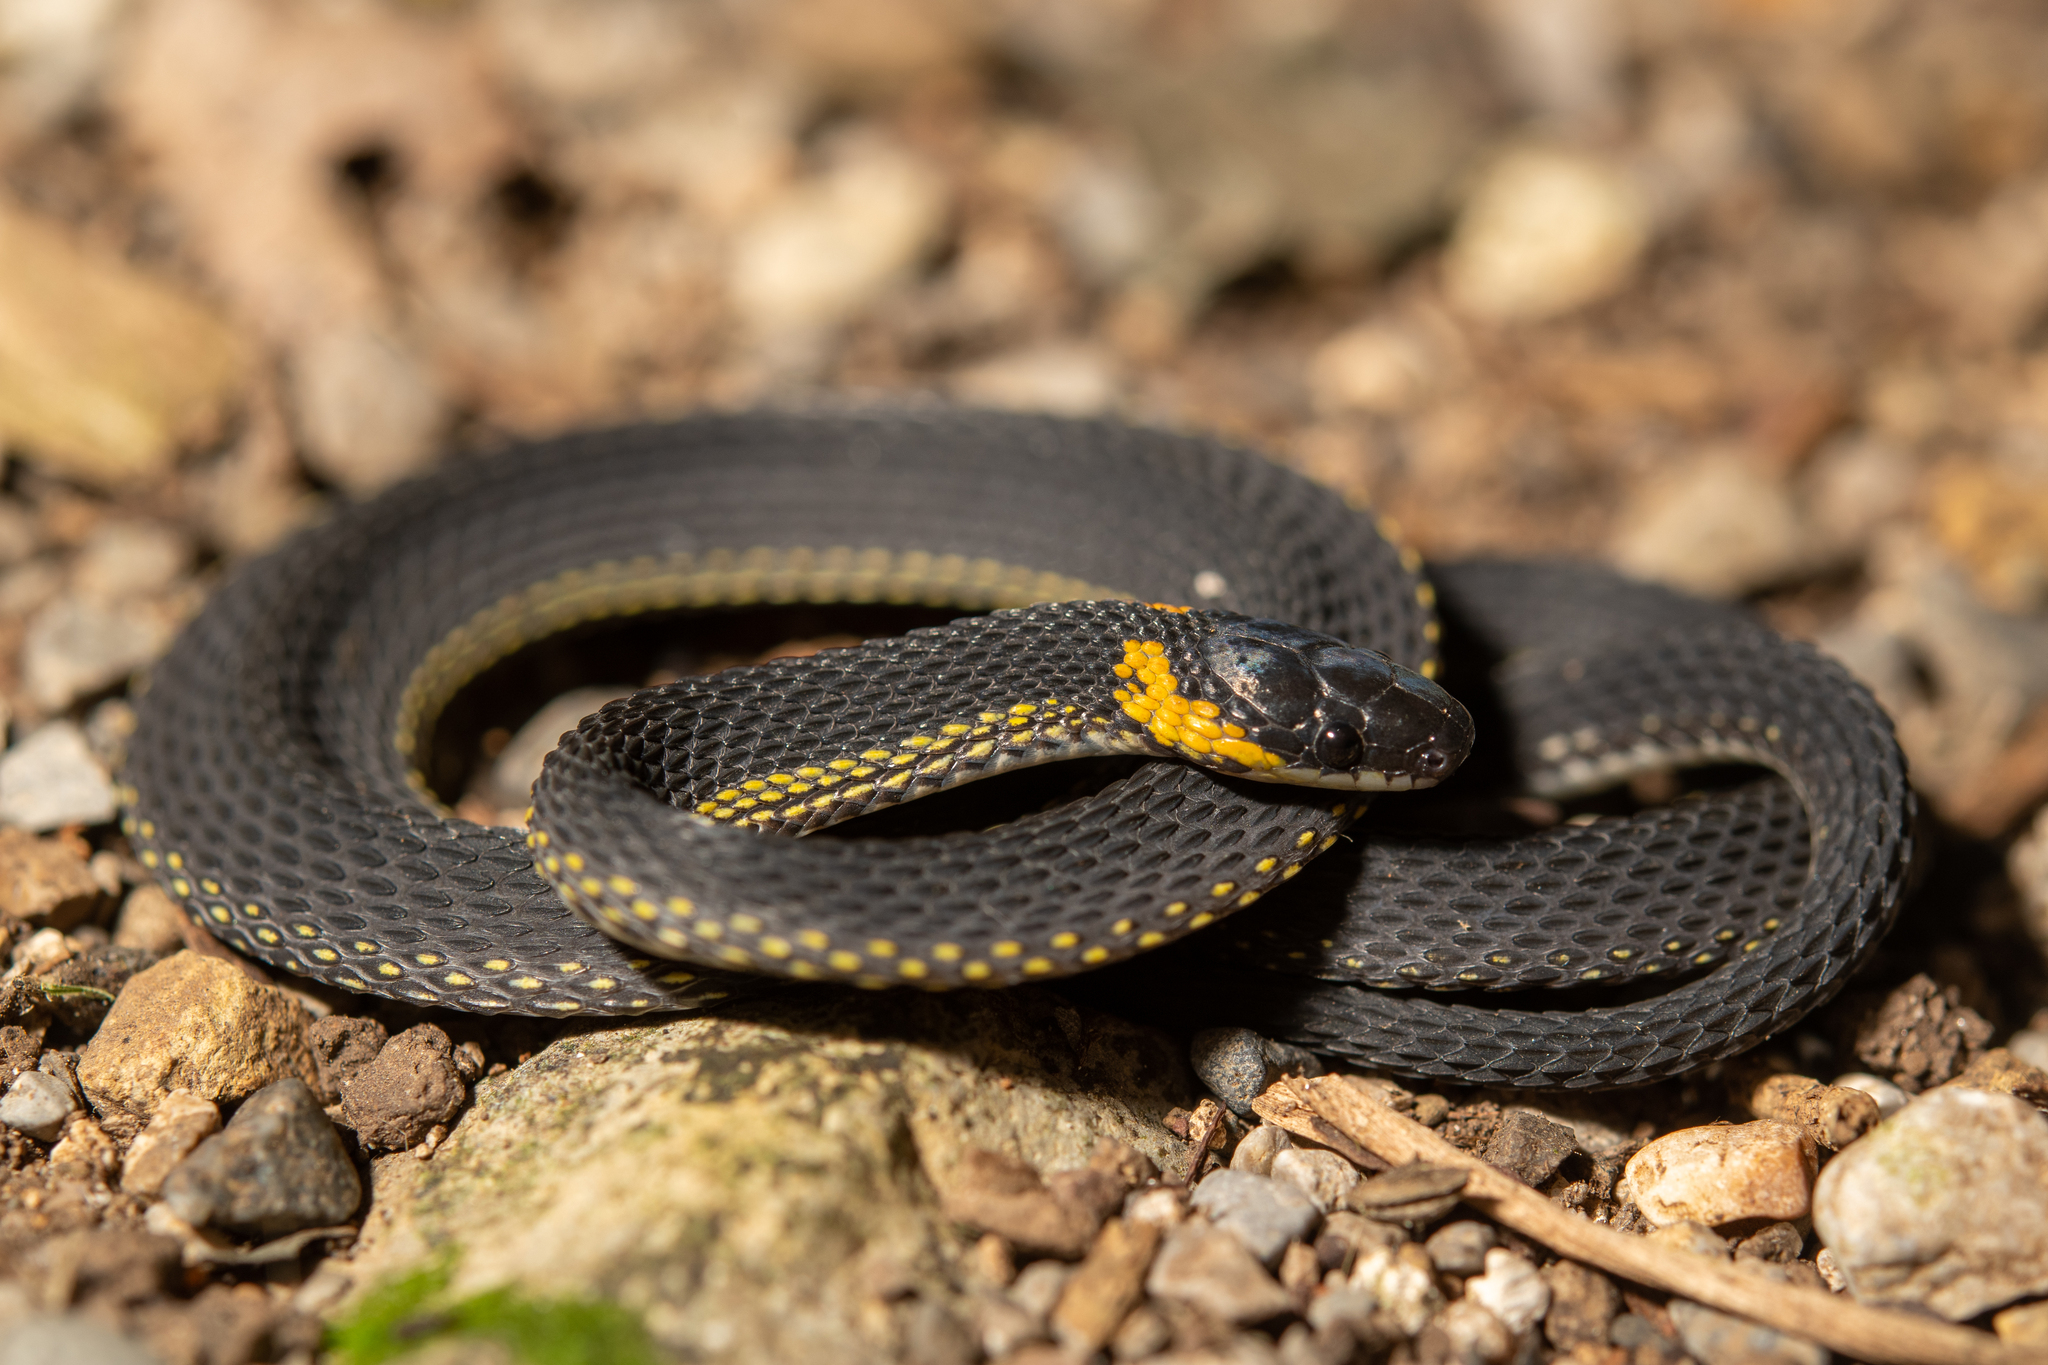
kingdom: Animalia
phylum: Chordata
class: Squamata
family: Colubridae
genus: Ninia
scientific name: Ninia diademata
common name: Ringneck coffee snake
